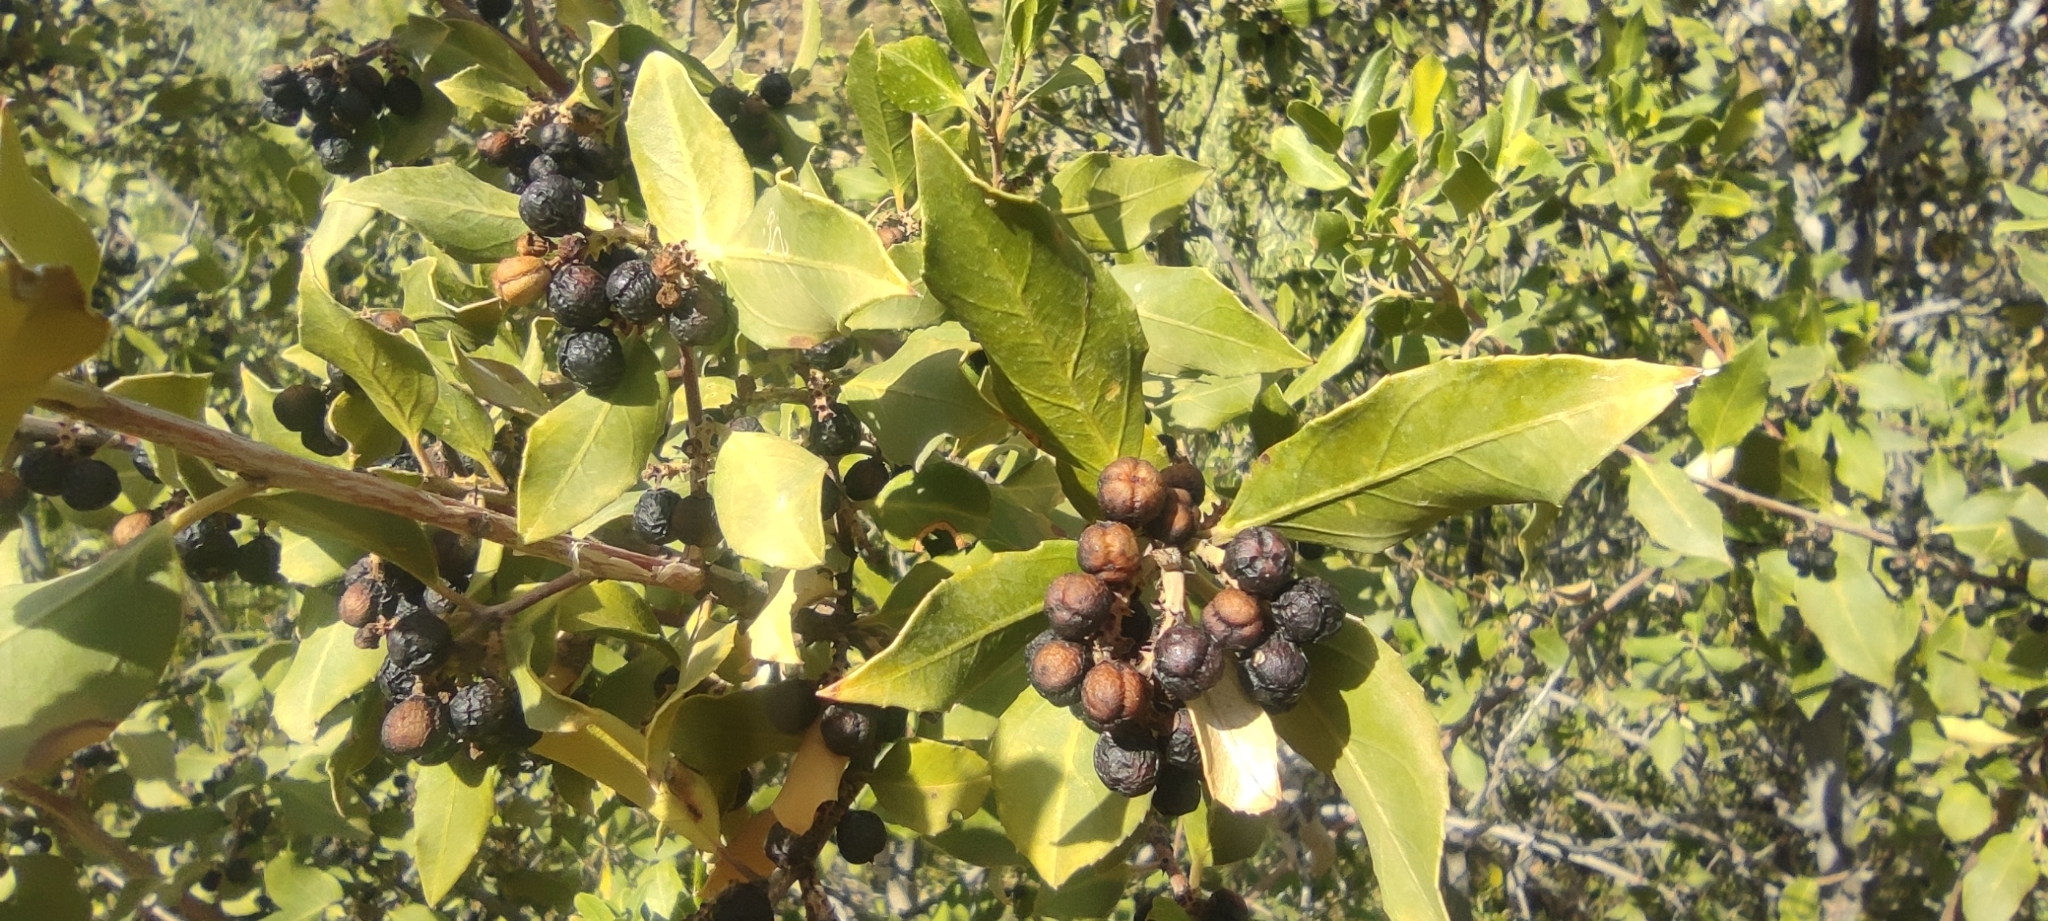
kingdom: Plantae
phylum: Tracheophyta
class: Magnoliopsida
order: Rosales
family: Rhamnaceae
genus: Rhamnus
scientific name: Rhamnus alaternus
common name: Mediterranean buckthorn
